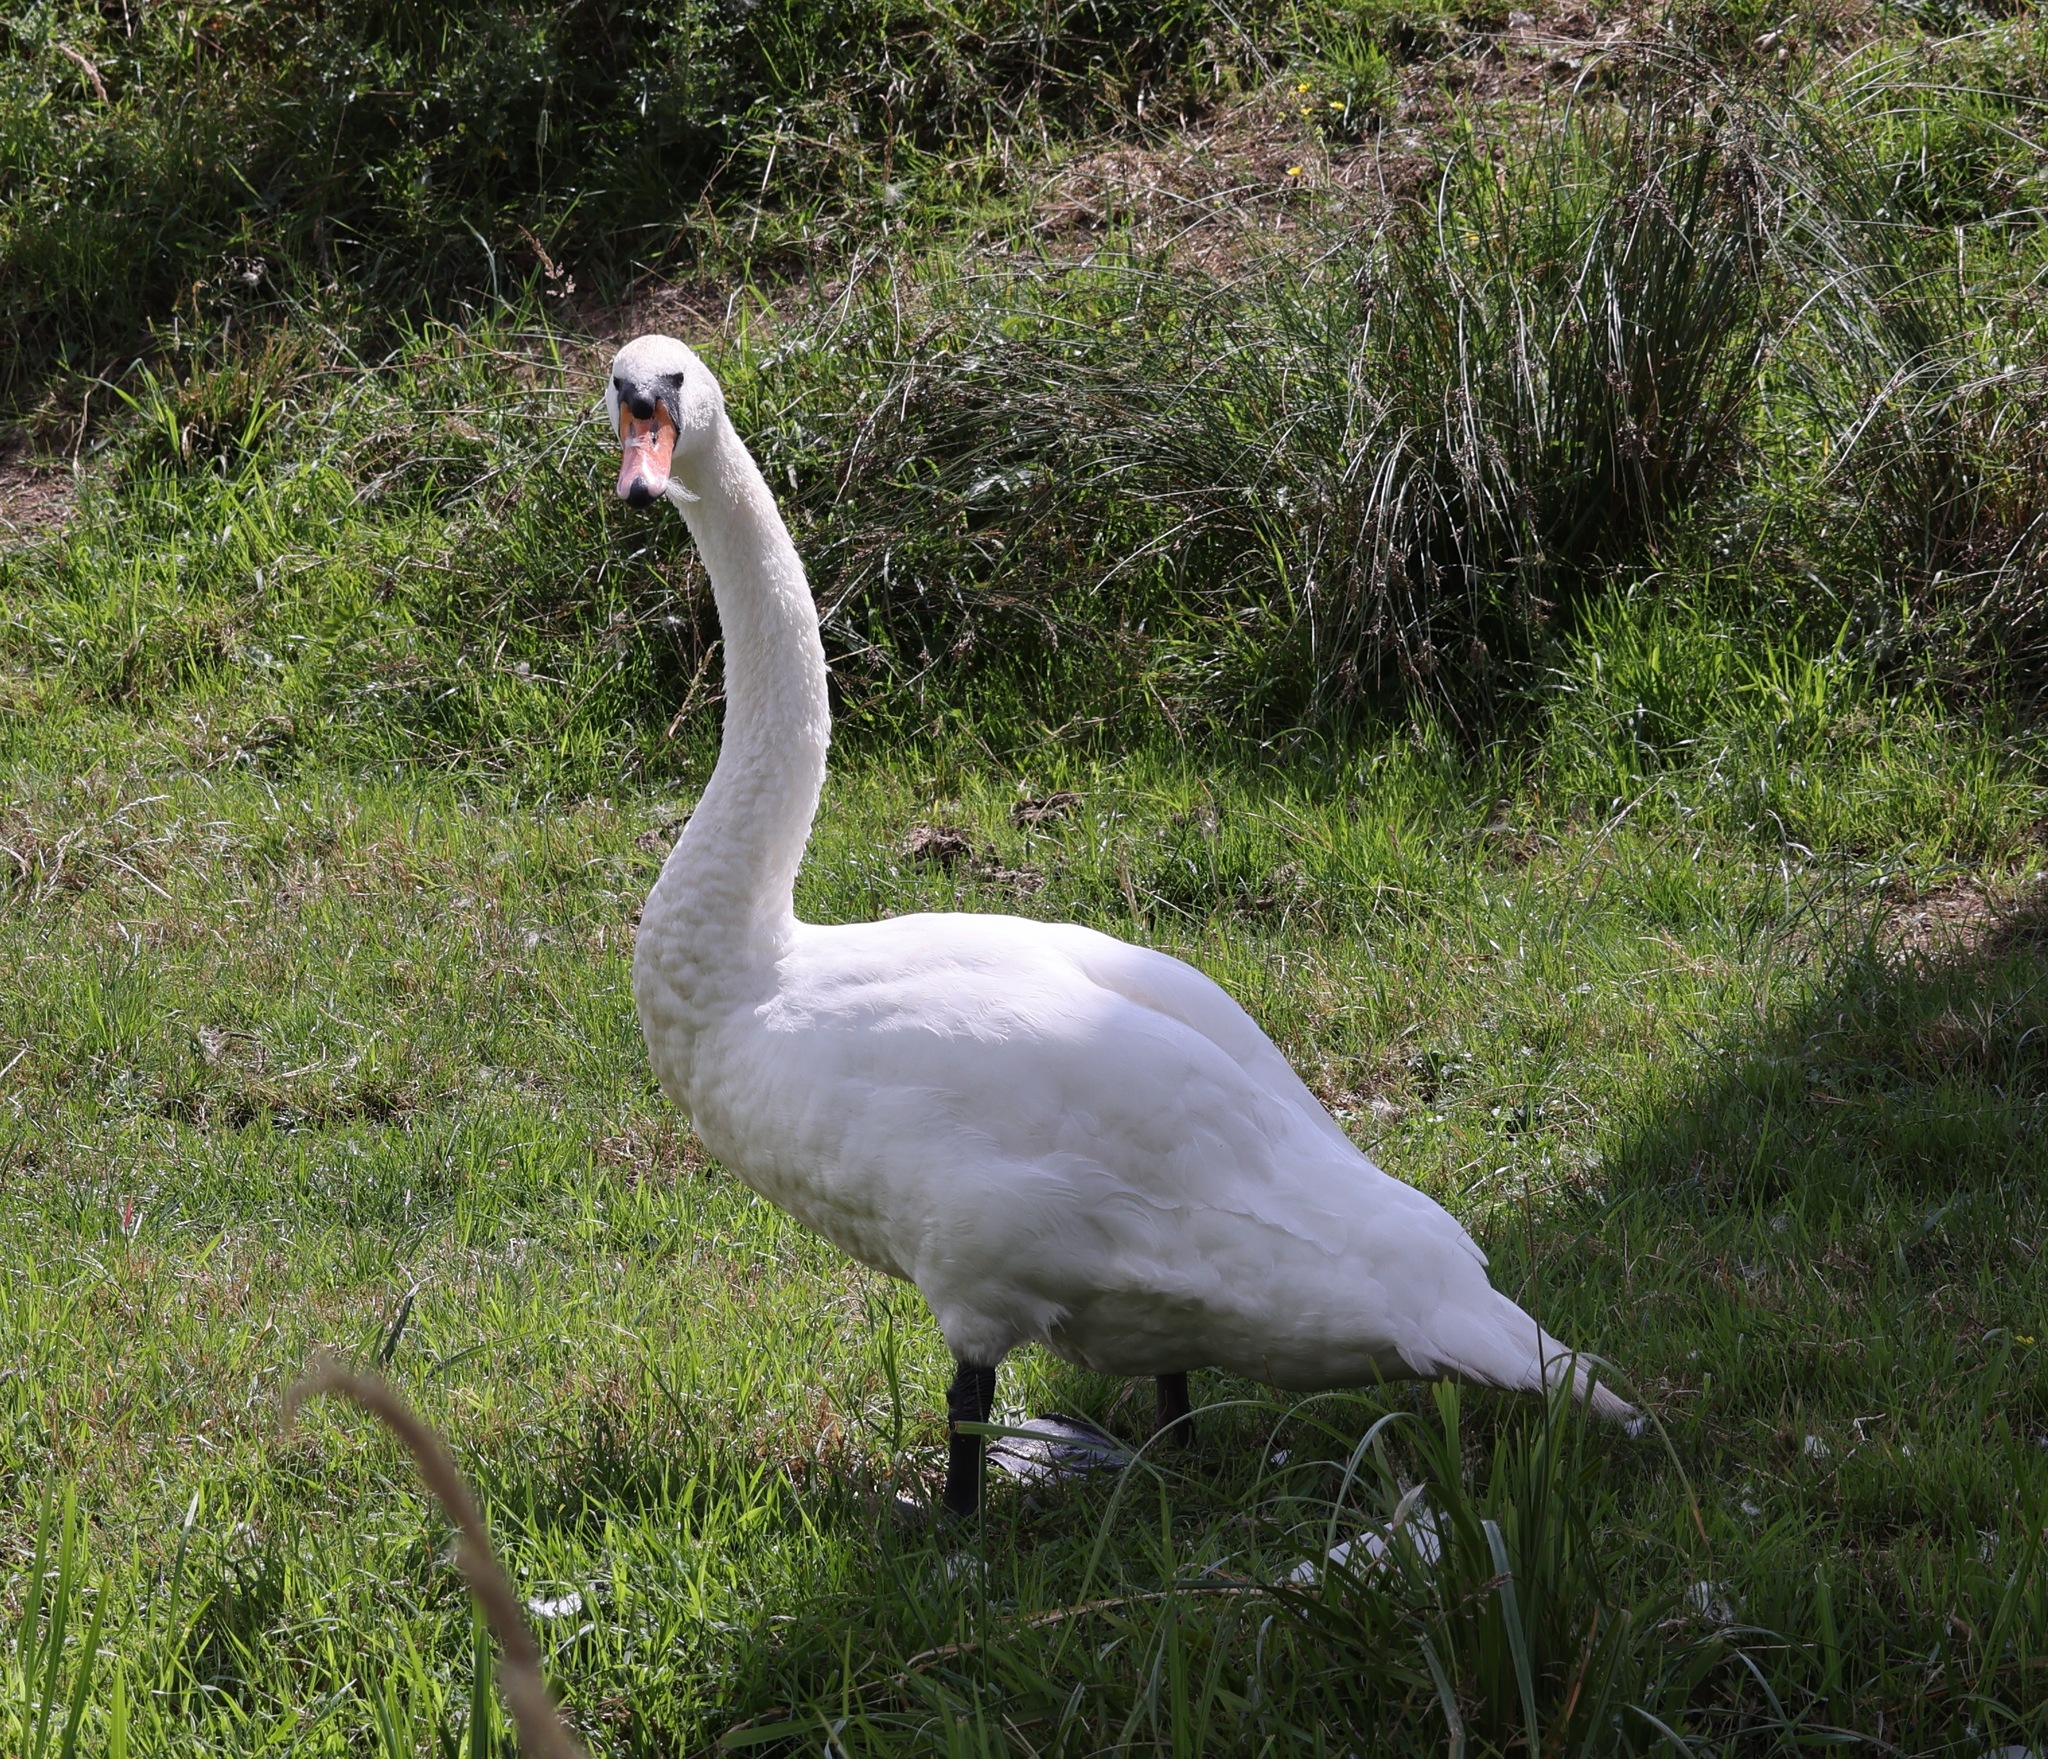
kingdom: Animalia
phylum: Chordata
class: Aves
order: Anseriformes
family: Anatidae
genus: Cygnus
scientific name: Cygnus olor
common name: Mute swan
